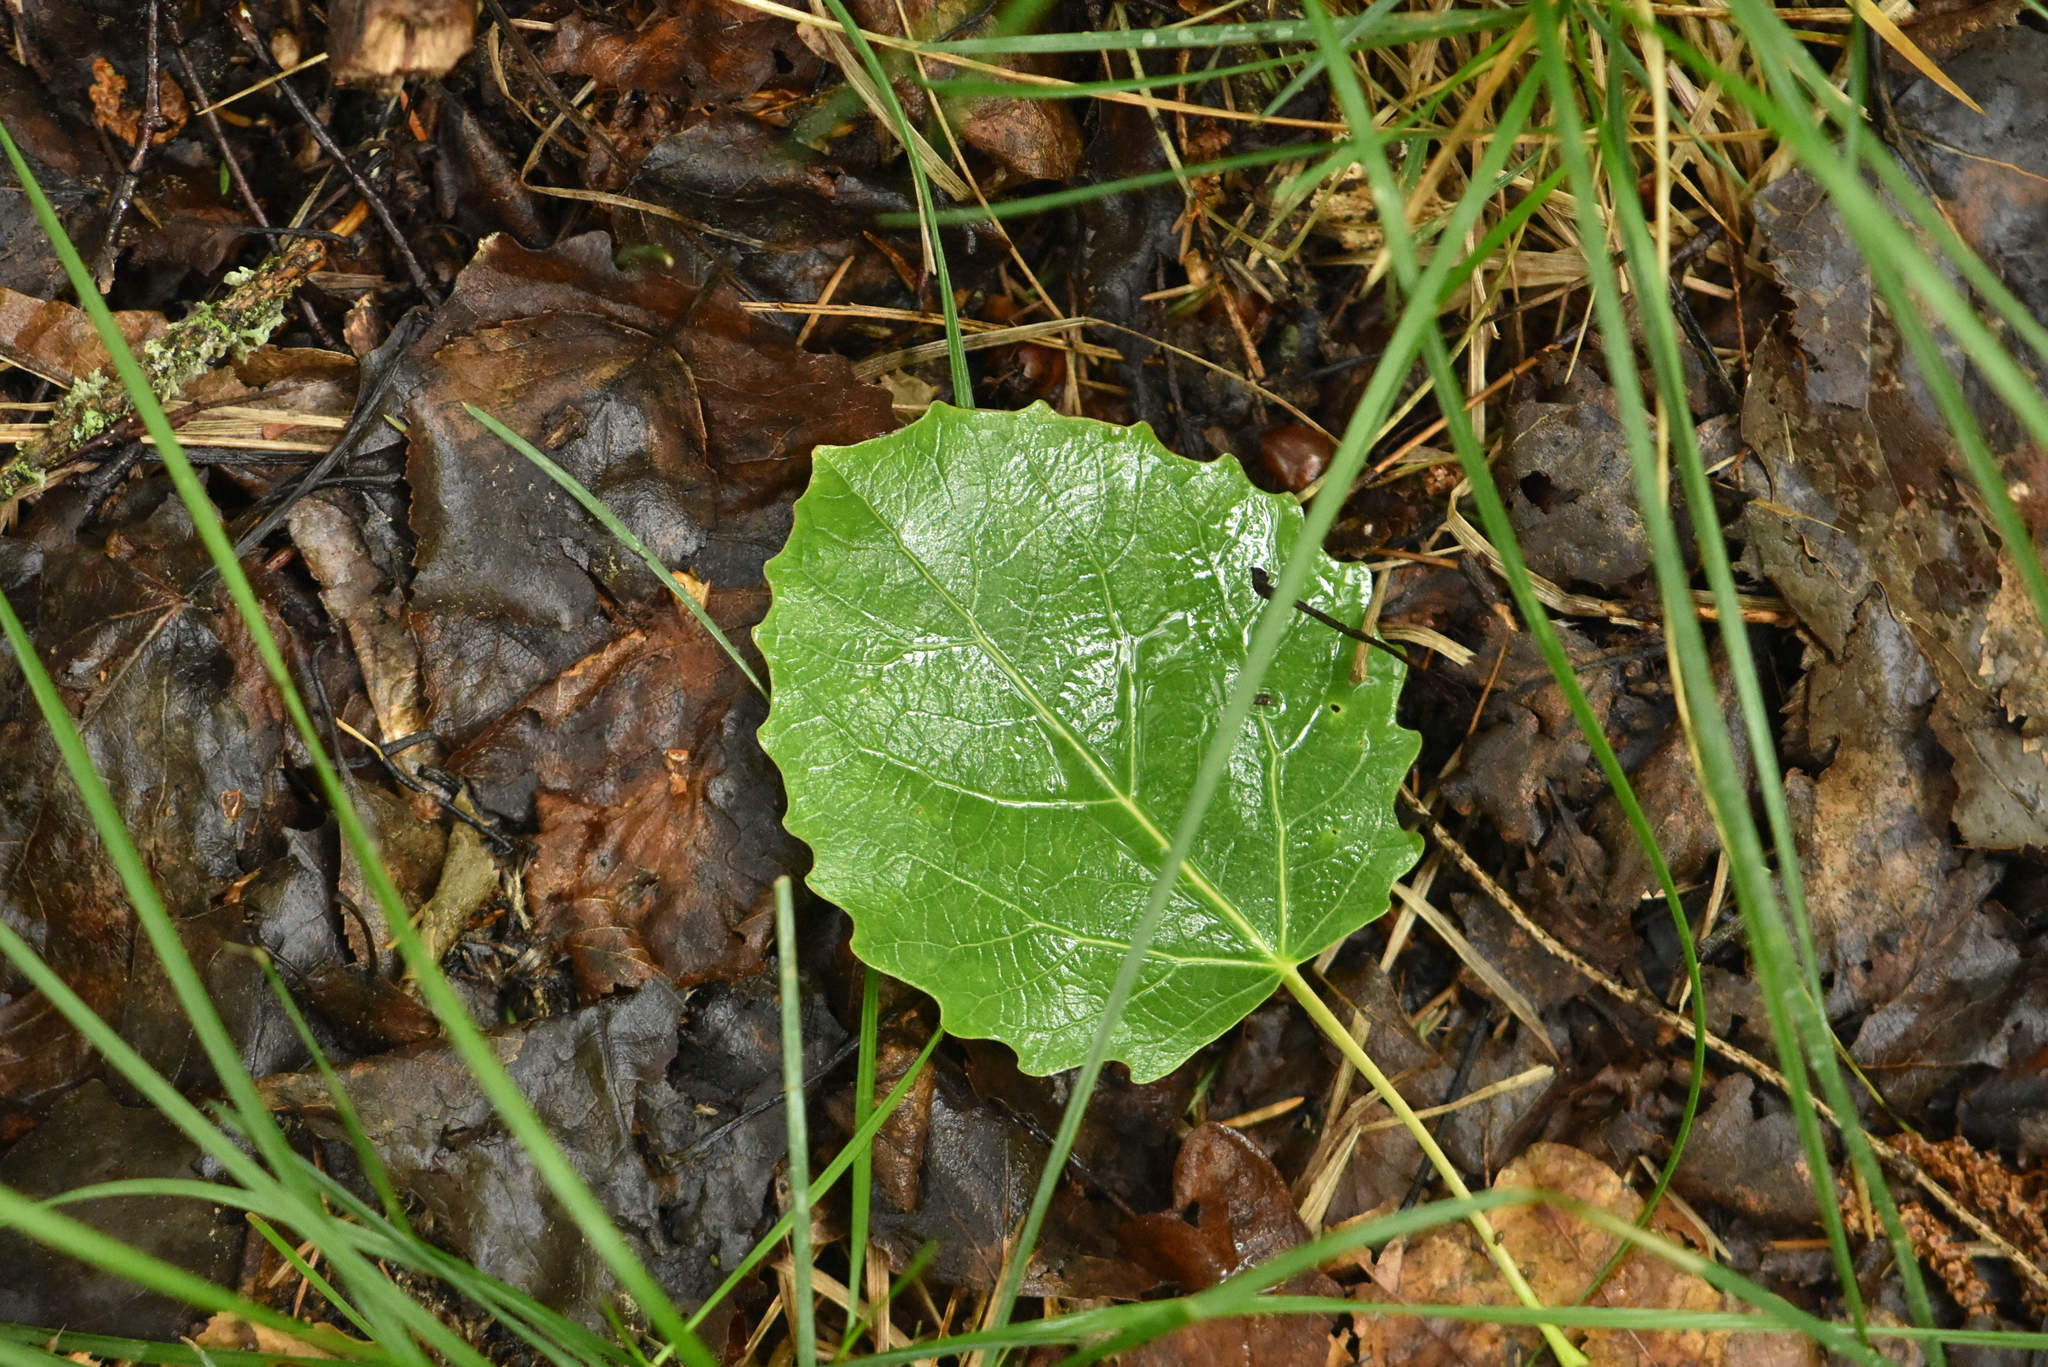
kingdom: Plantae
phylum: Tracheophyta
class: Magnoliopsida
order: Malpighiales
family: Salicaceae
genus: Populus
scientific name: Populus tremula
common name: European aspen
